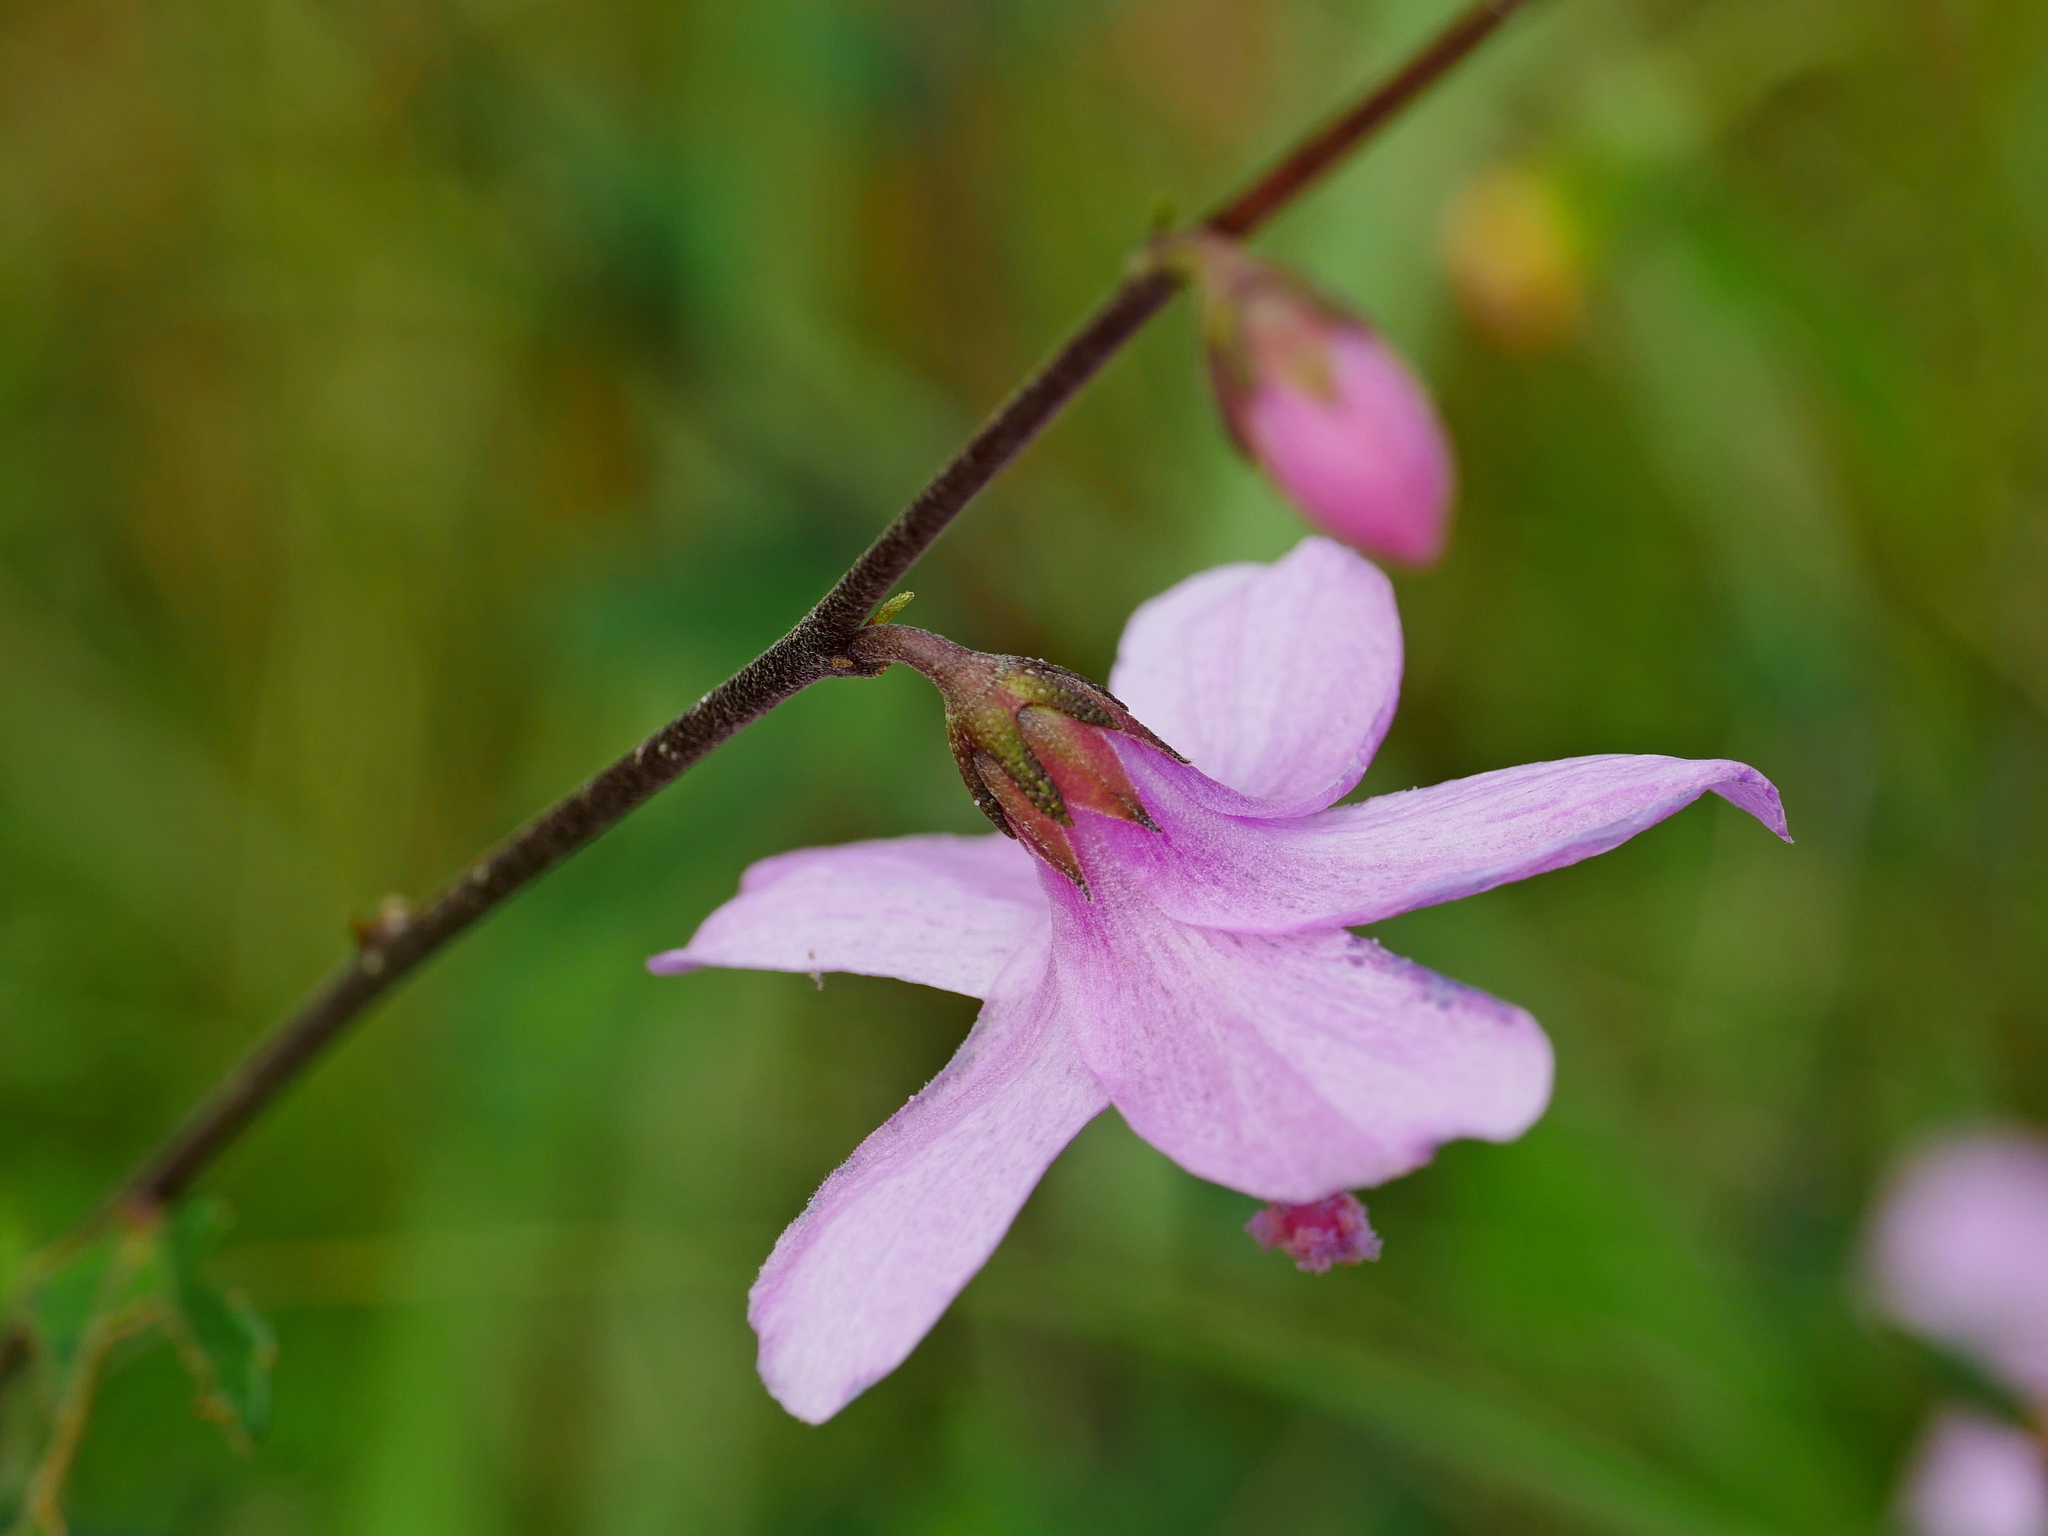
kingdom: Plantae
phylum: Tracheophyta
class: Magnoliopsida
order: Malvales
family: Malvaceae
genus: Urena
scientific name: Urena procumbens
